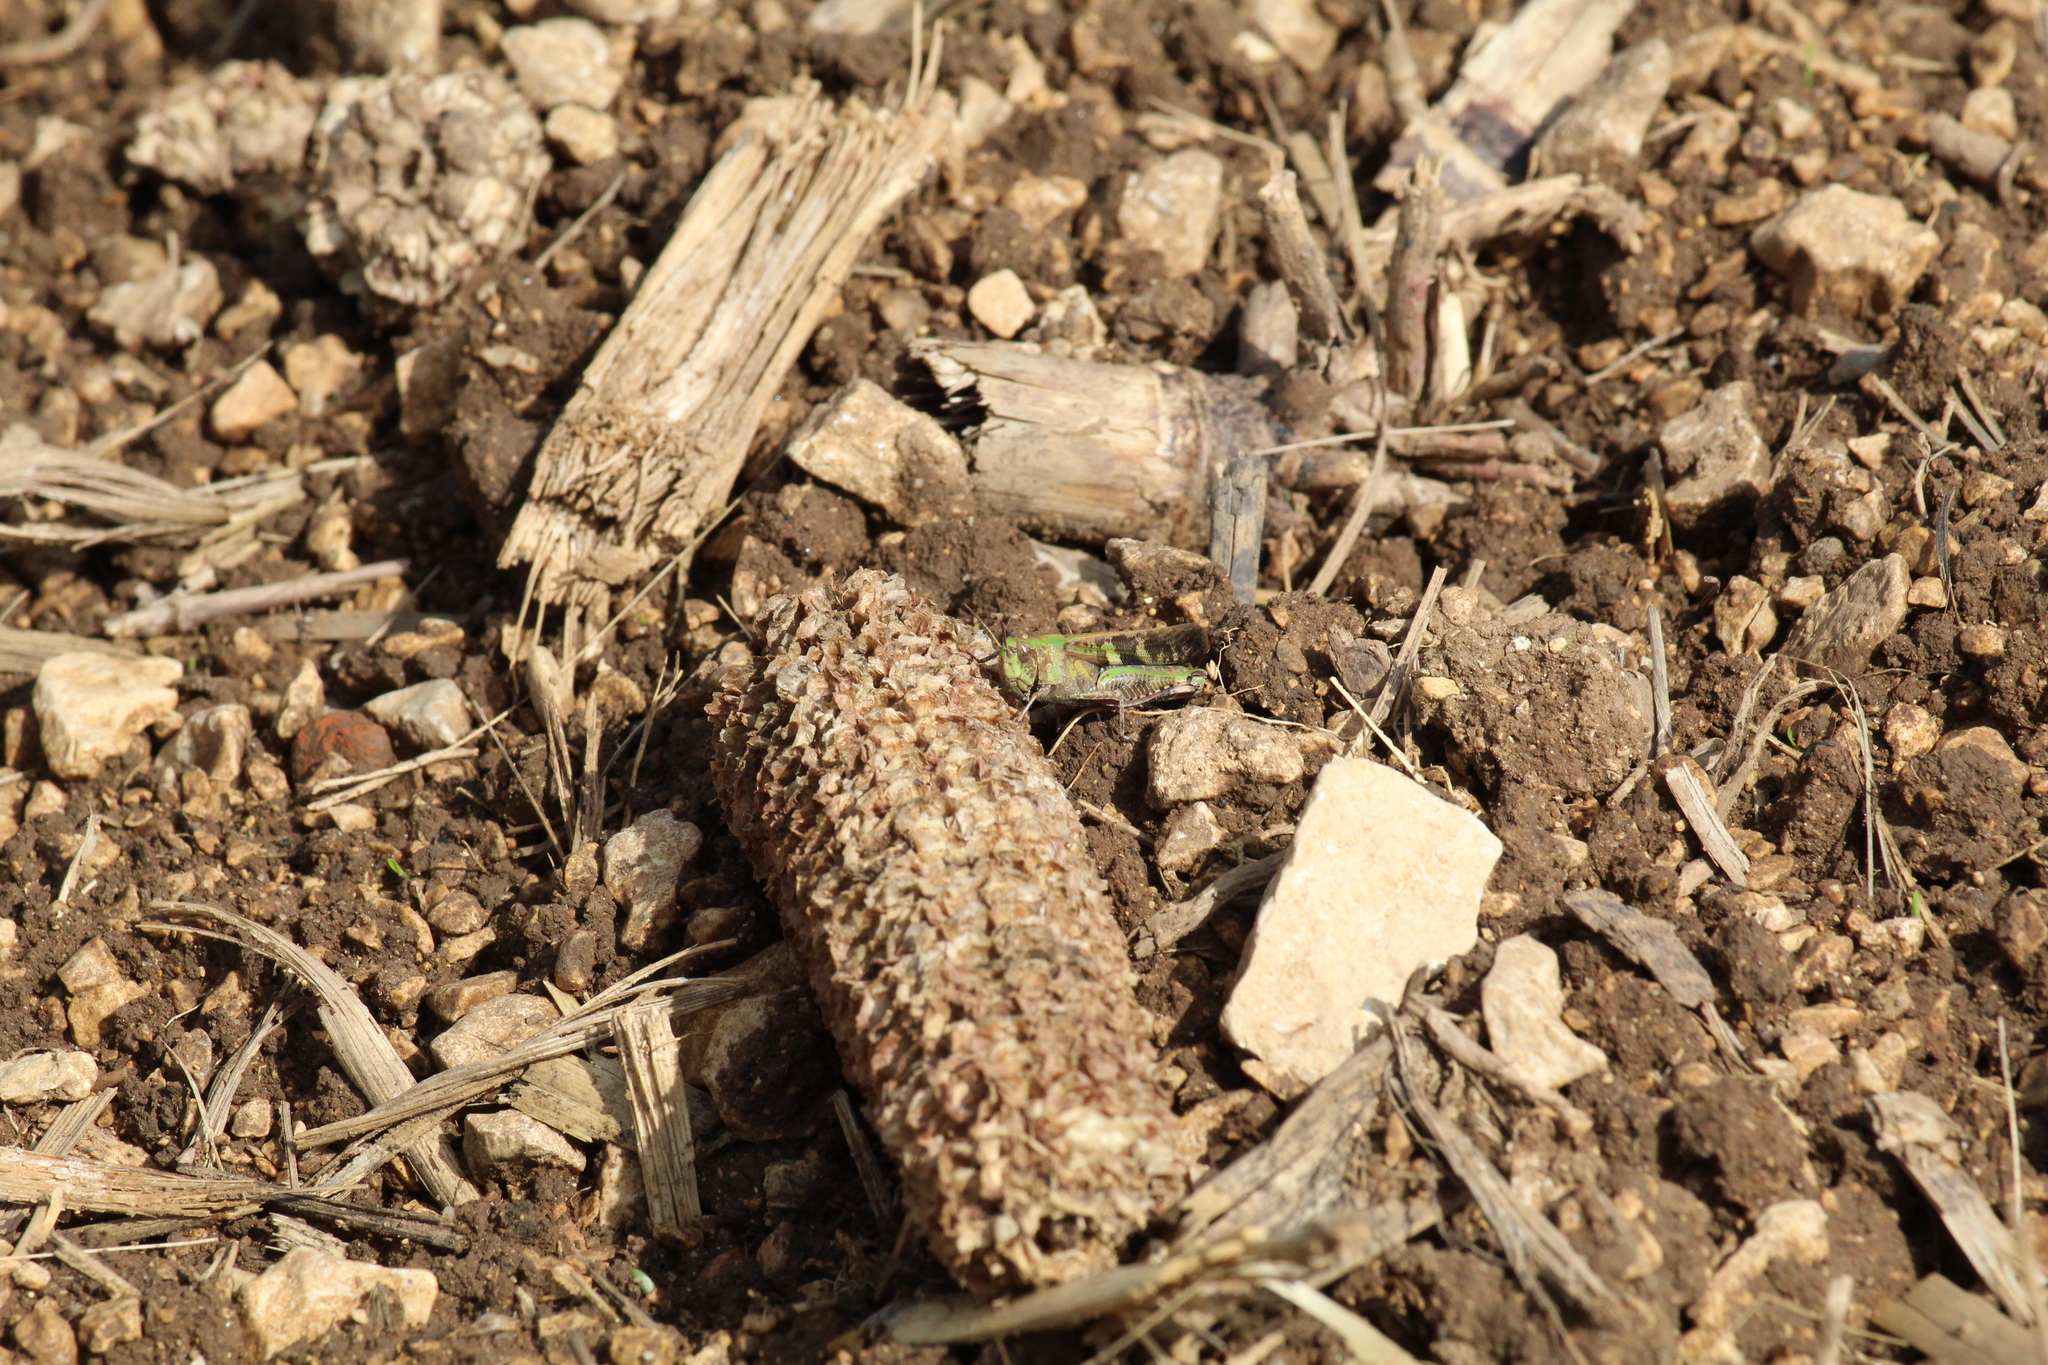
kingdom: Animalia
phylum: Arthropoda
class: Insecta
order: Orthoptera
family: Acrididae
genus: Aiolopus
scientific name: Aiolopus strepens
